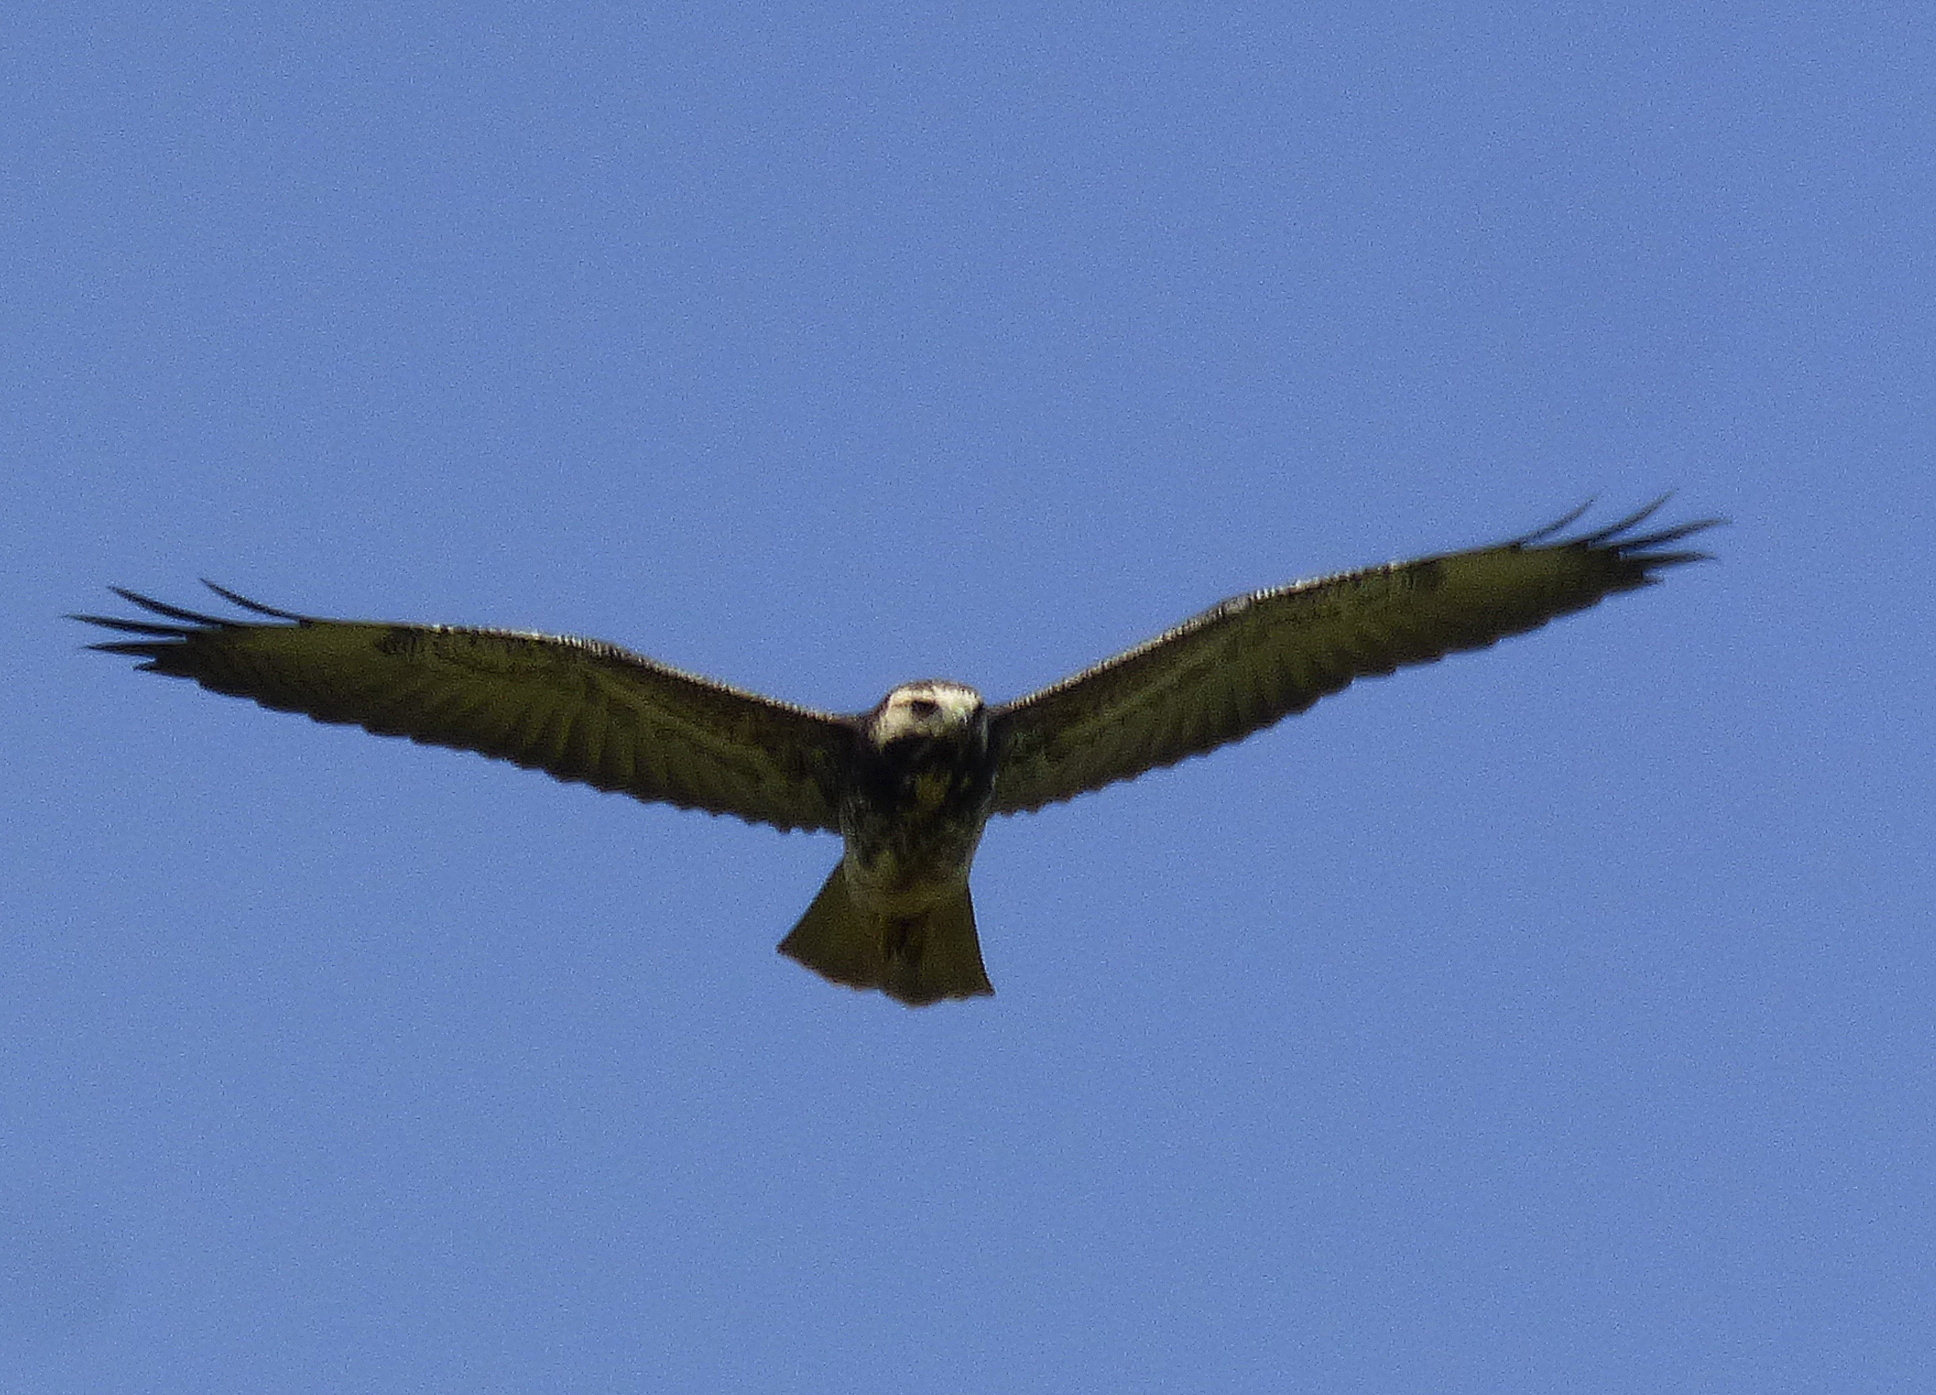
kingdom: Animalia
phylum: Chordata
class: Aves
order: Accipitriformes
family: Accipitridae
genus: Buteo
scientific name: Buteo albicaudatus
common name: White-tailed hawk
